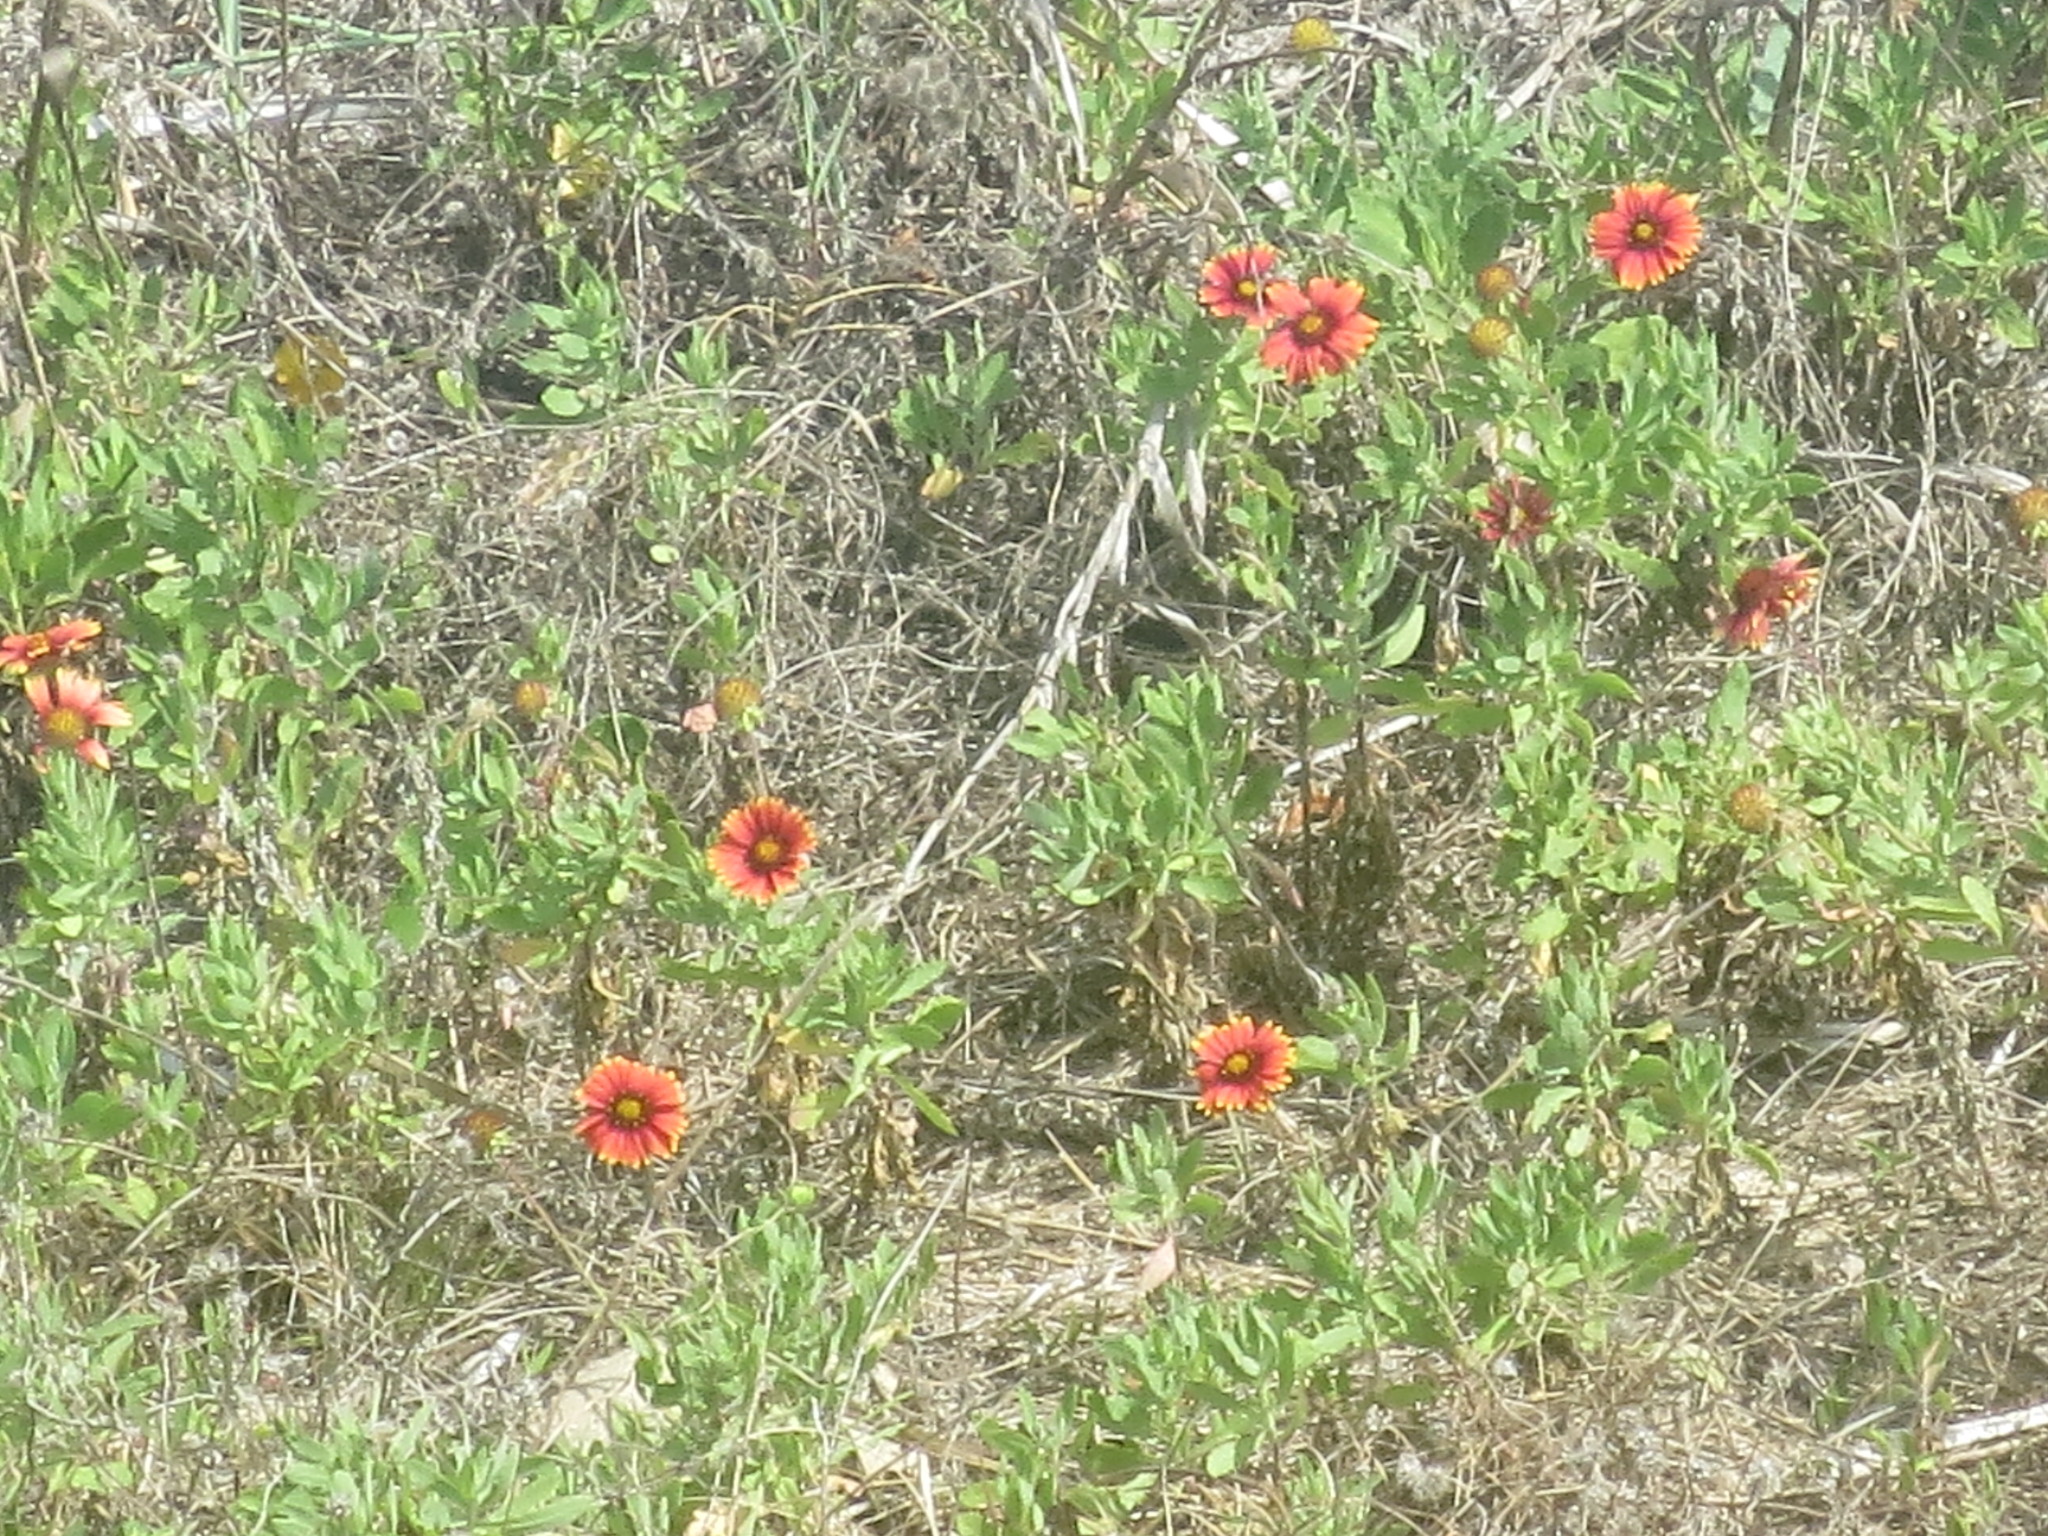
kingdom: Plantae
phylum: Tracheophyta
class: Magnoliopsida
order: Asterales
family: Asteraceae
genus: Gaillardia
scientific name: Gaillardia pulchella
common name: Firewheel
